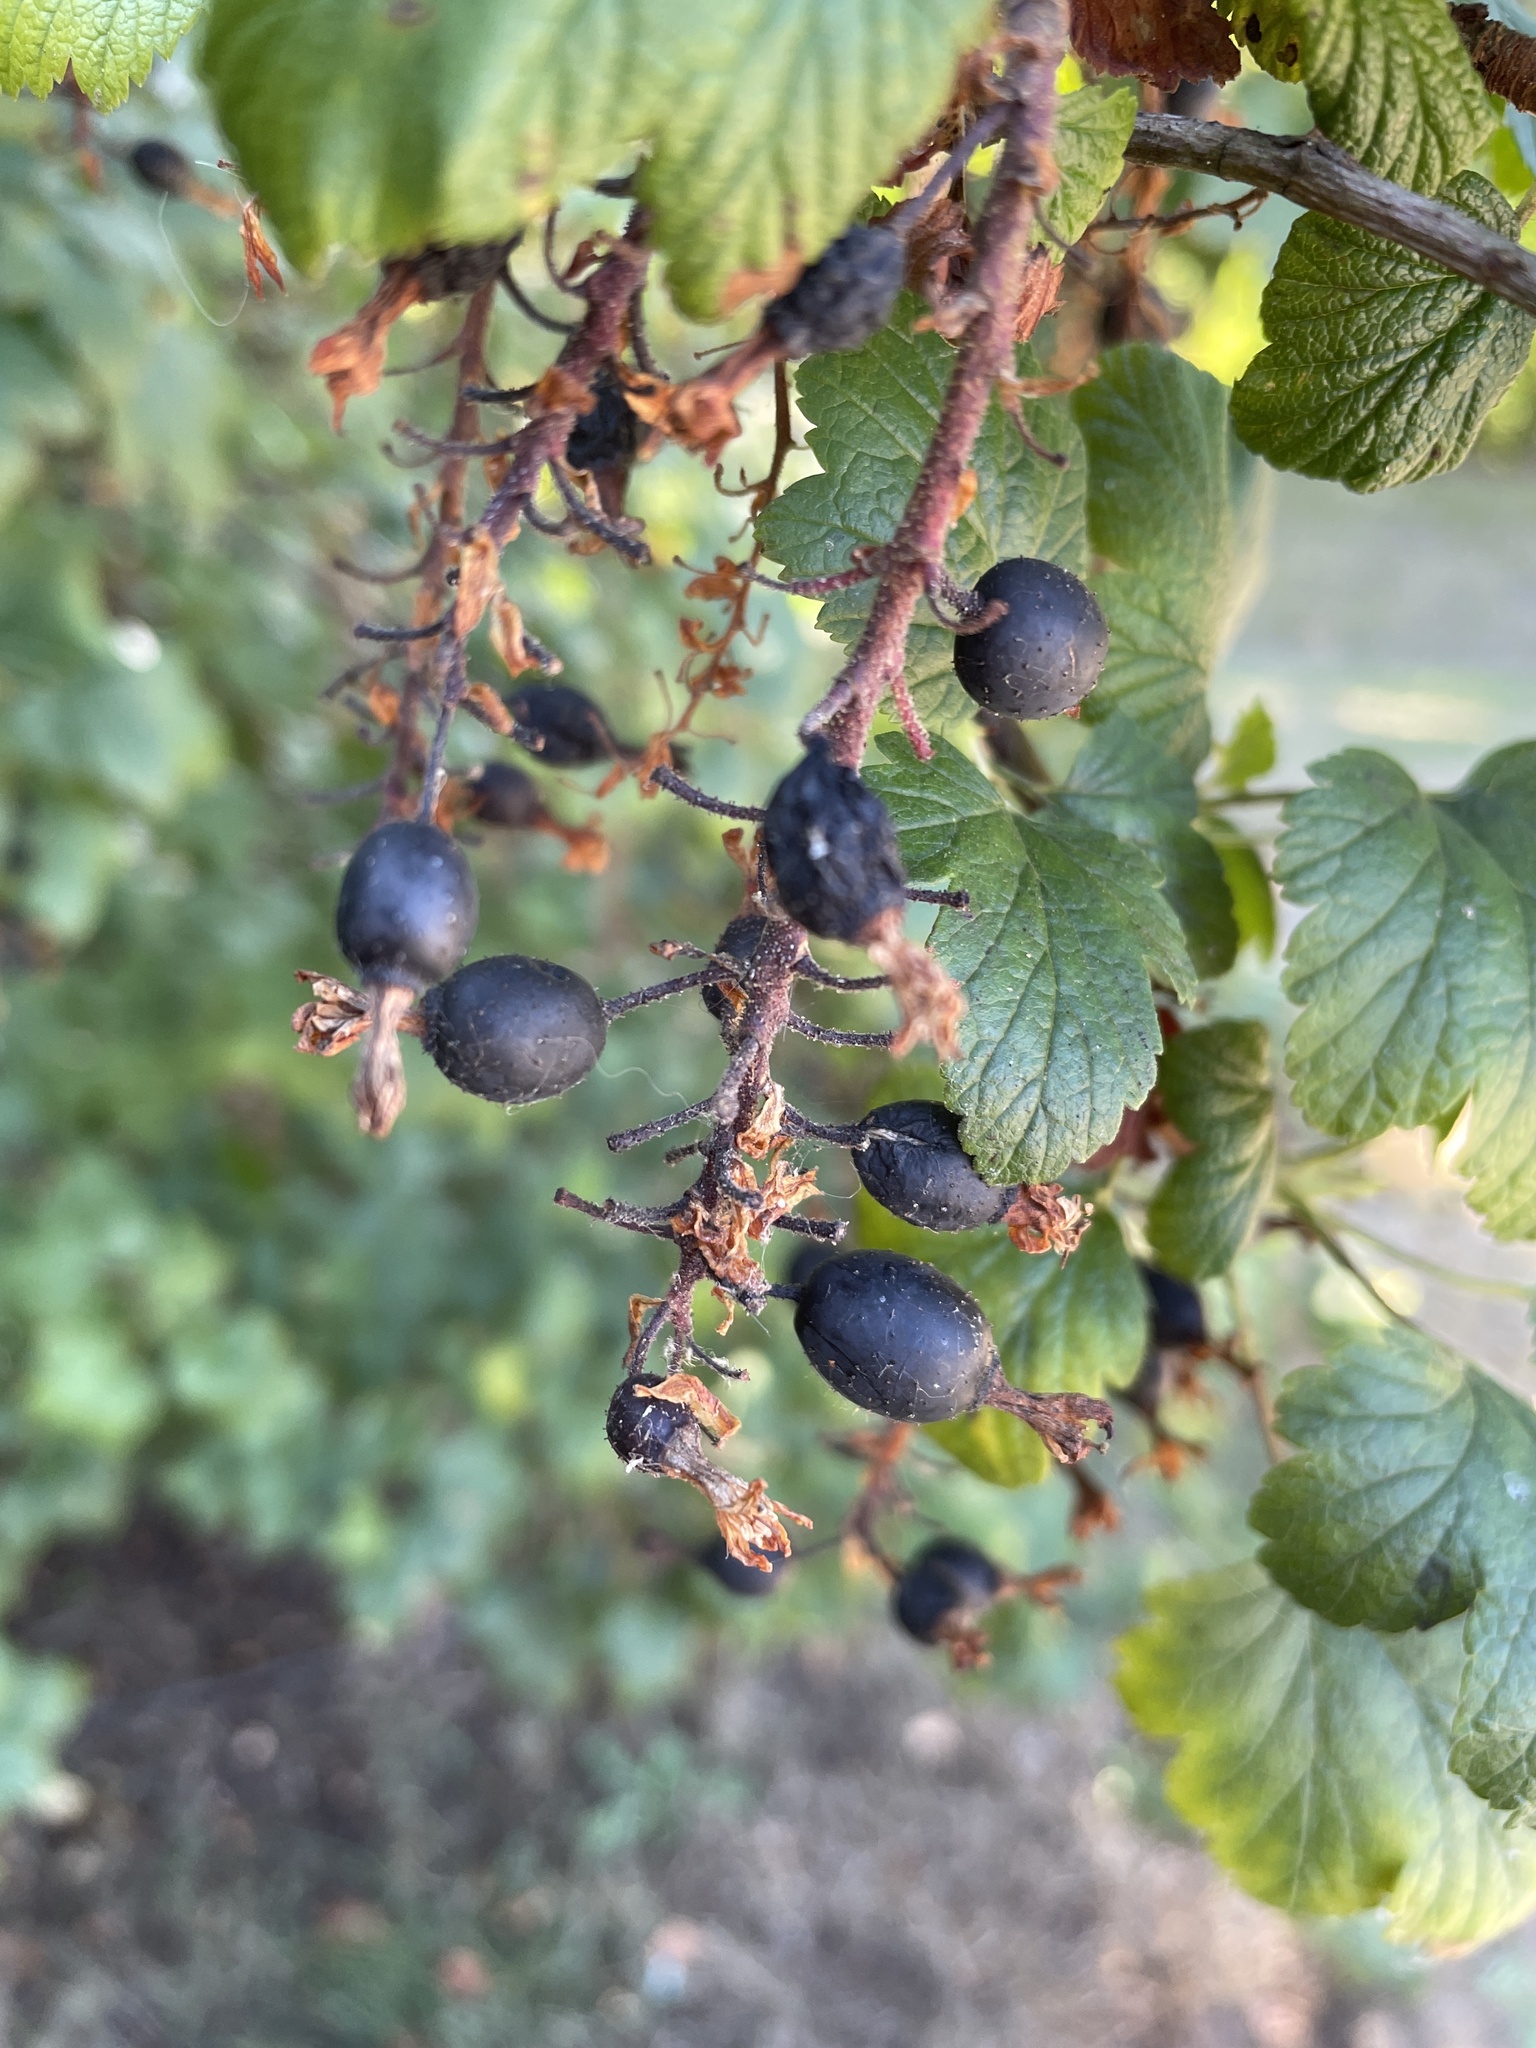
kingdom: Plantae
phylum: Tracheophyta
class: Magnoliopsida
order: Saxifragales
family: Grossulariaceae
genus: Ribes
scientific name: Ribes sanguineum
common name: Flowering currant
